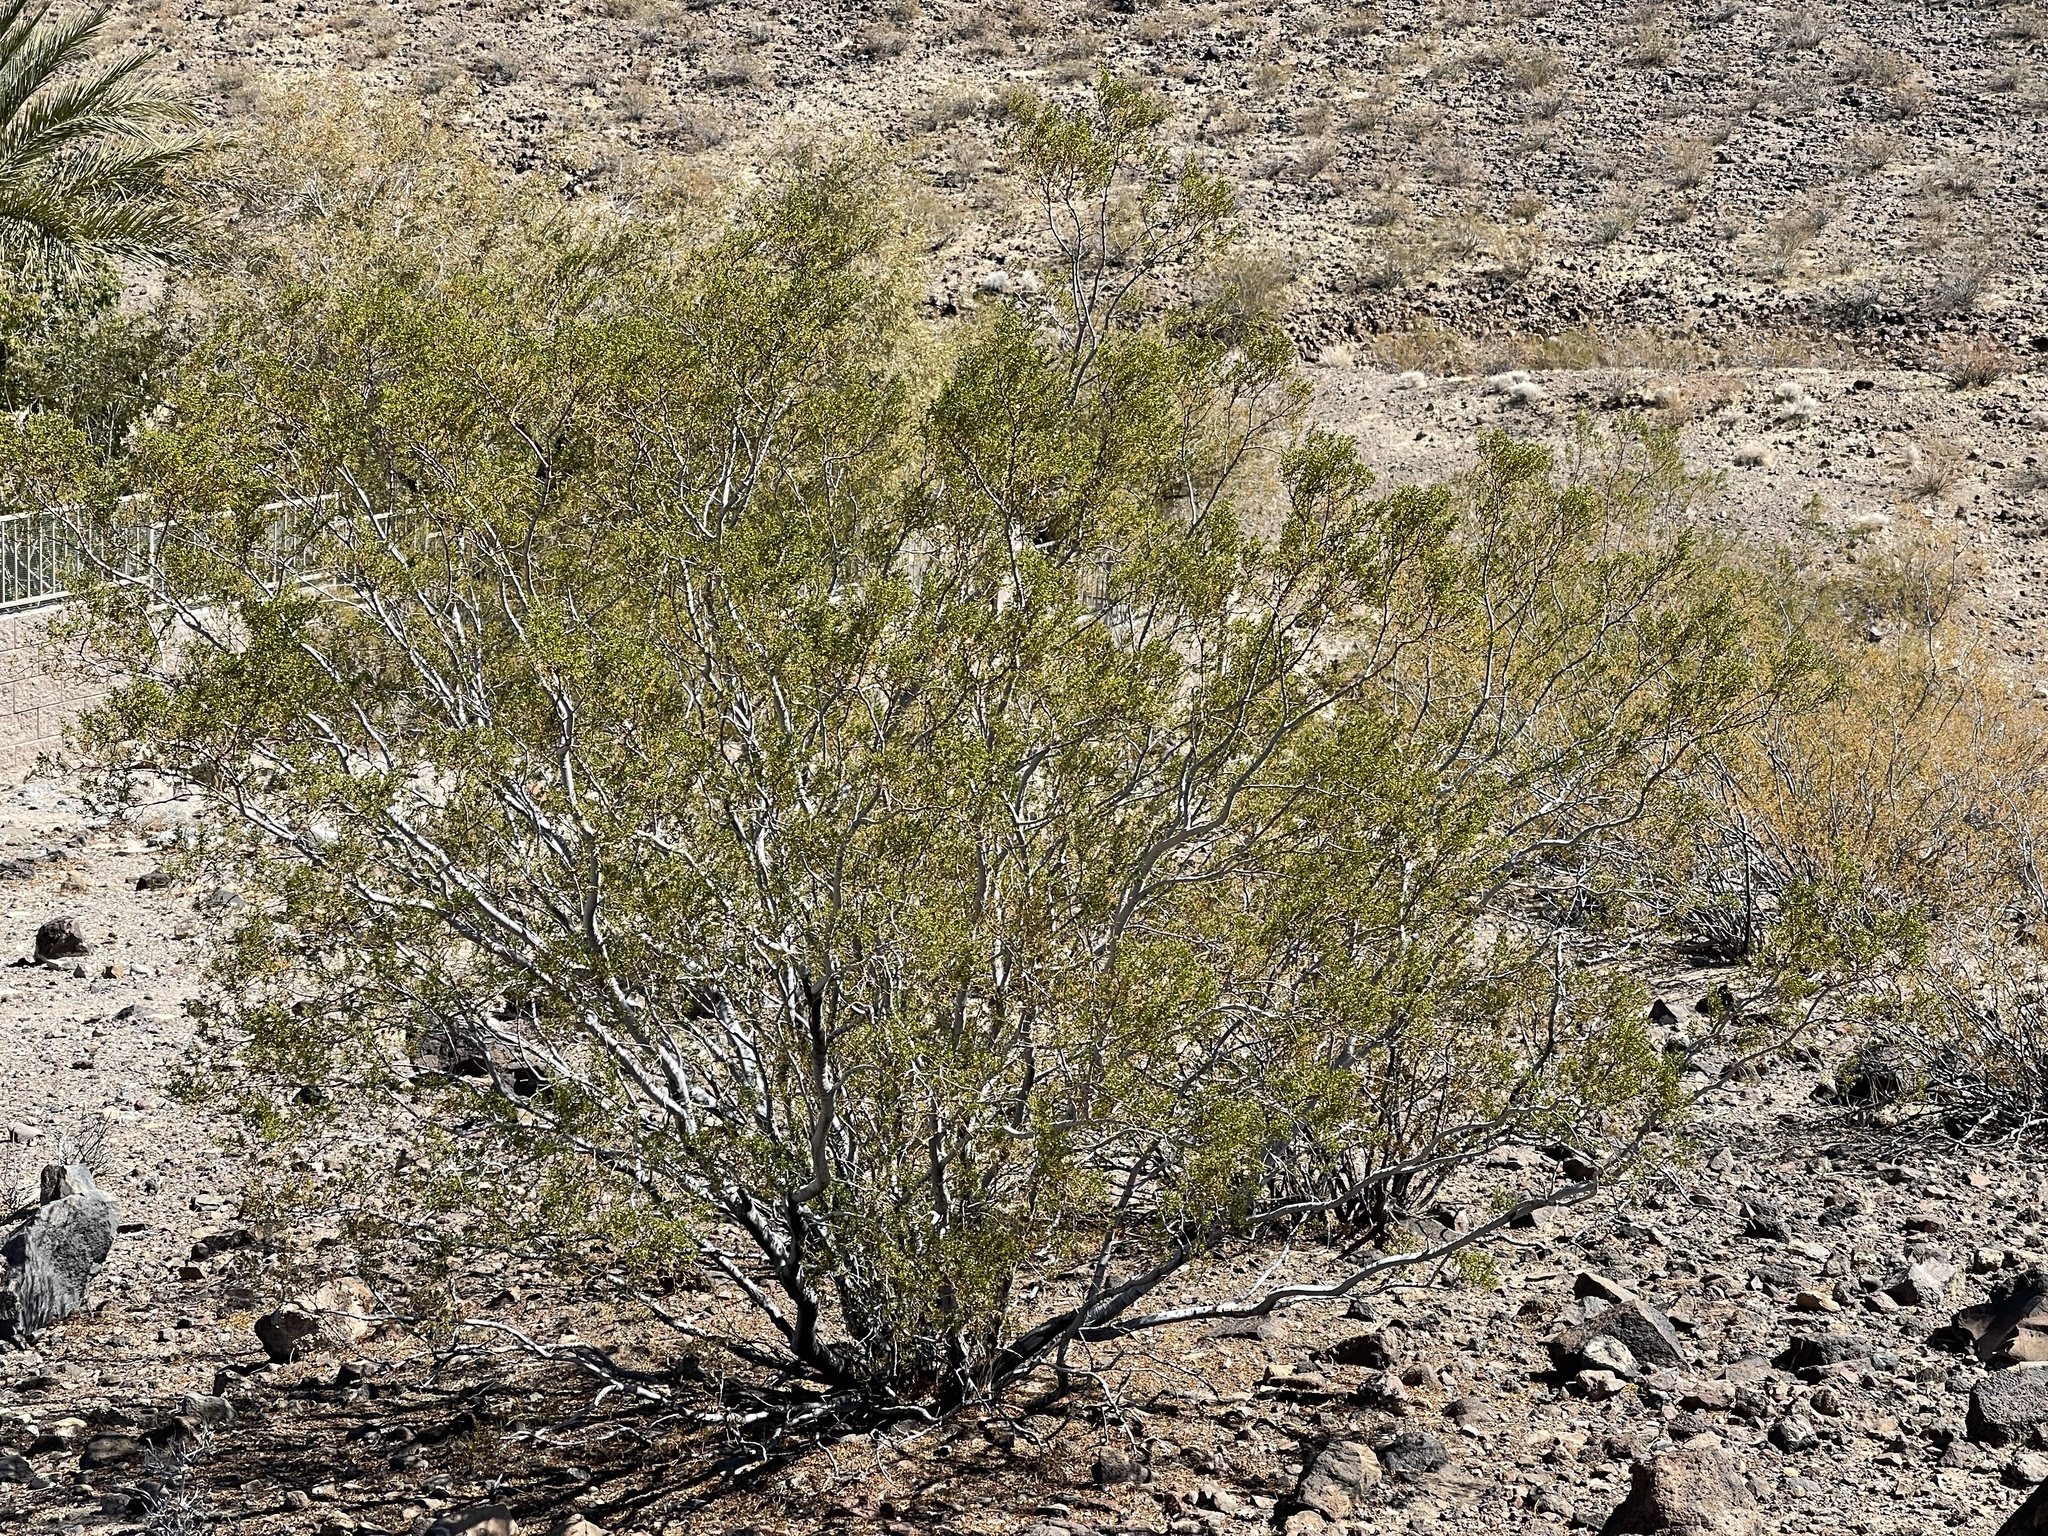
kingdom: Plantae
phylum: Tracheophyta
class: Magnoliopsida
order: Zygophyllales
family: Zygophyllaceae
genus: Larrea
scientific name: Larrea tridentata
